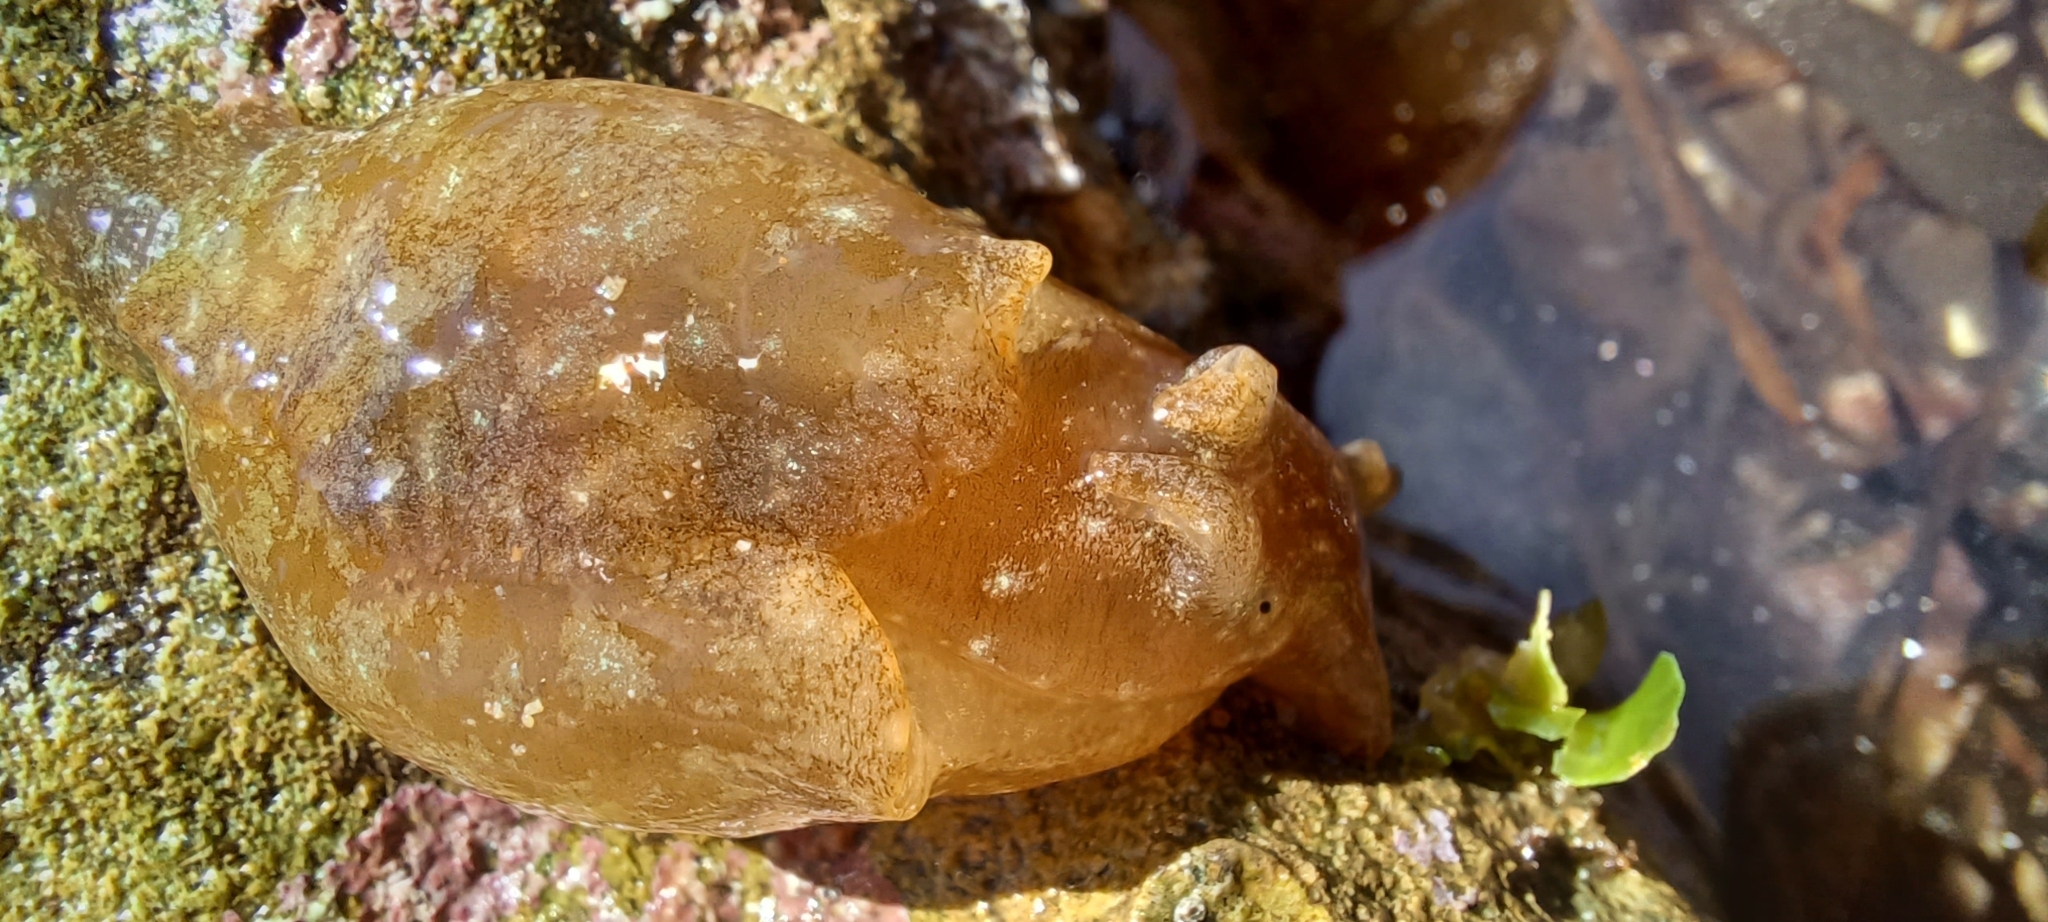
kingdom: Animalia
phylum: Mollusca
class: Gastropoda
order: Aplysiida
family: Aplysiidae
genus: Aplysia
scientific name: Aplysia juliana
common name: Walking sea hare
